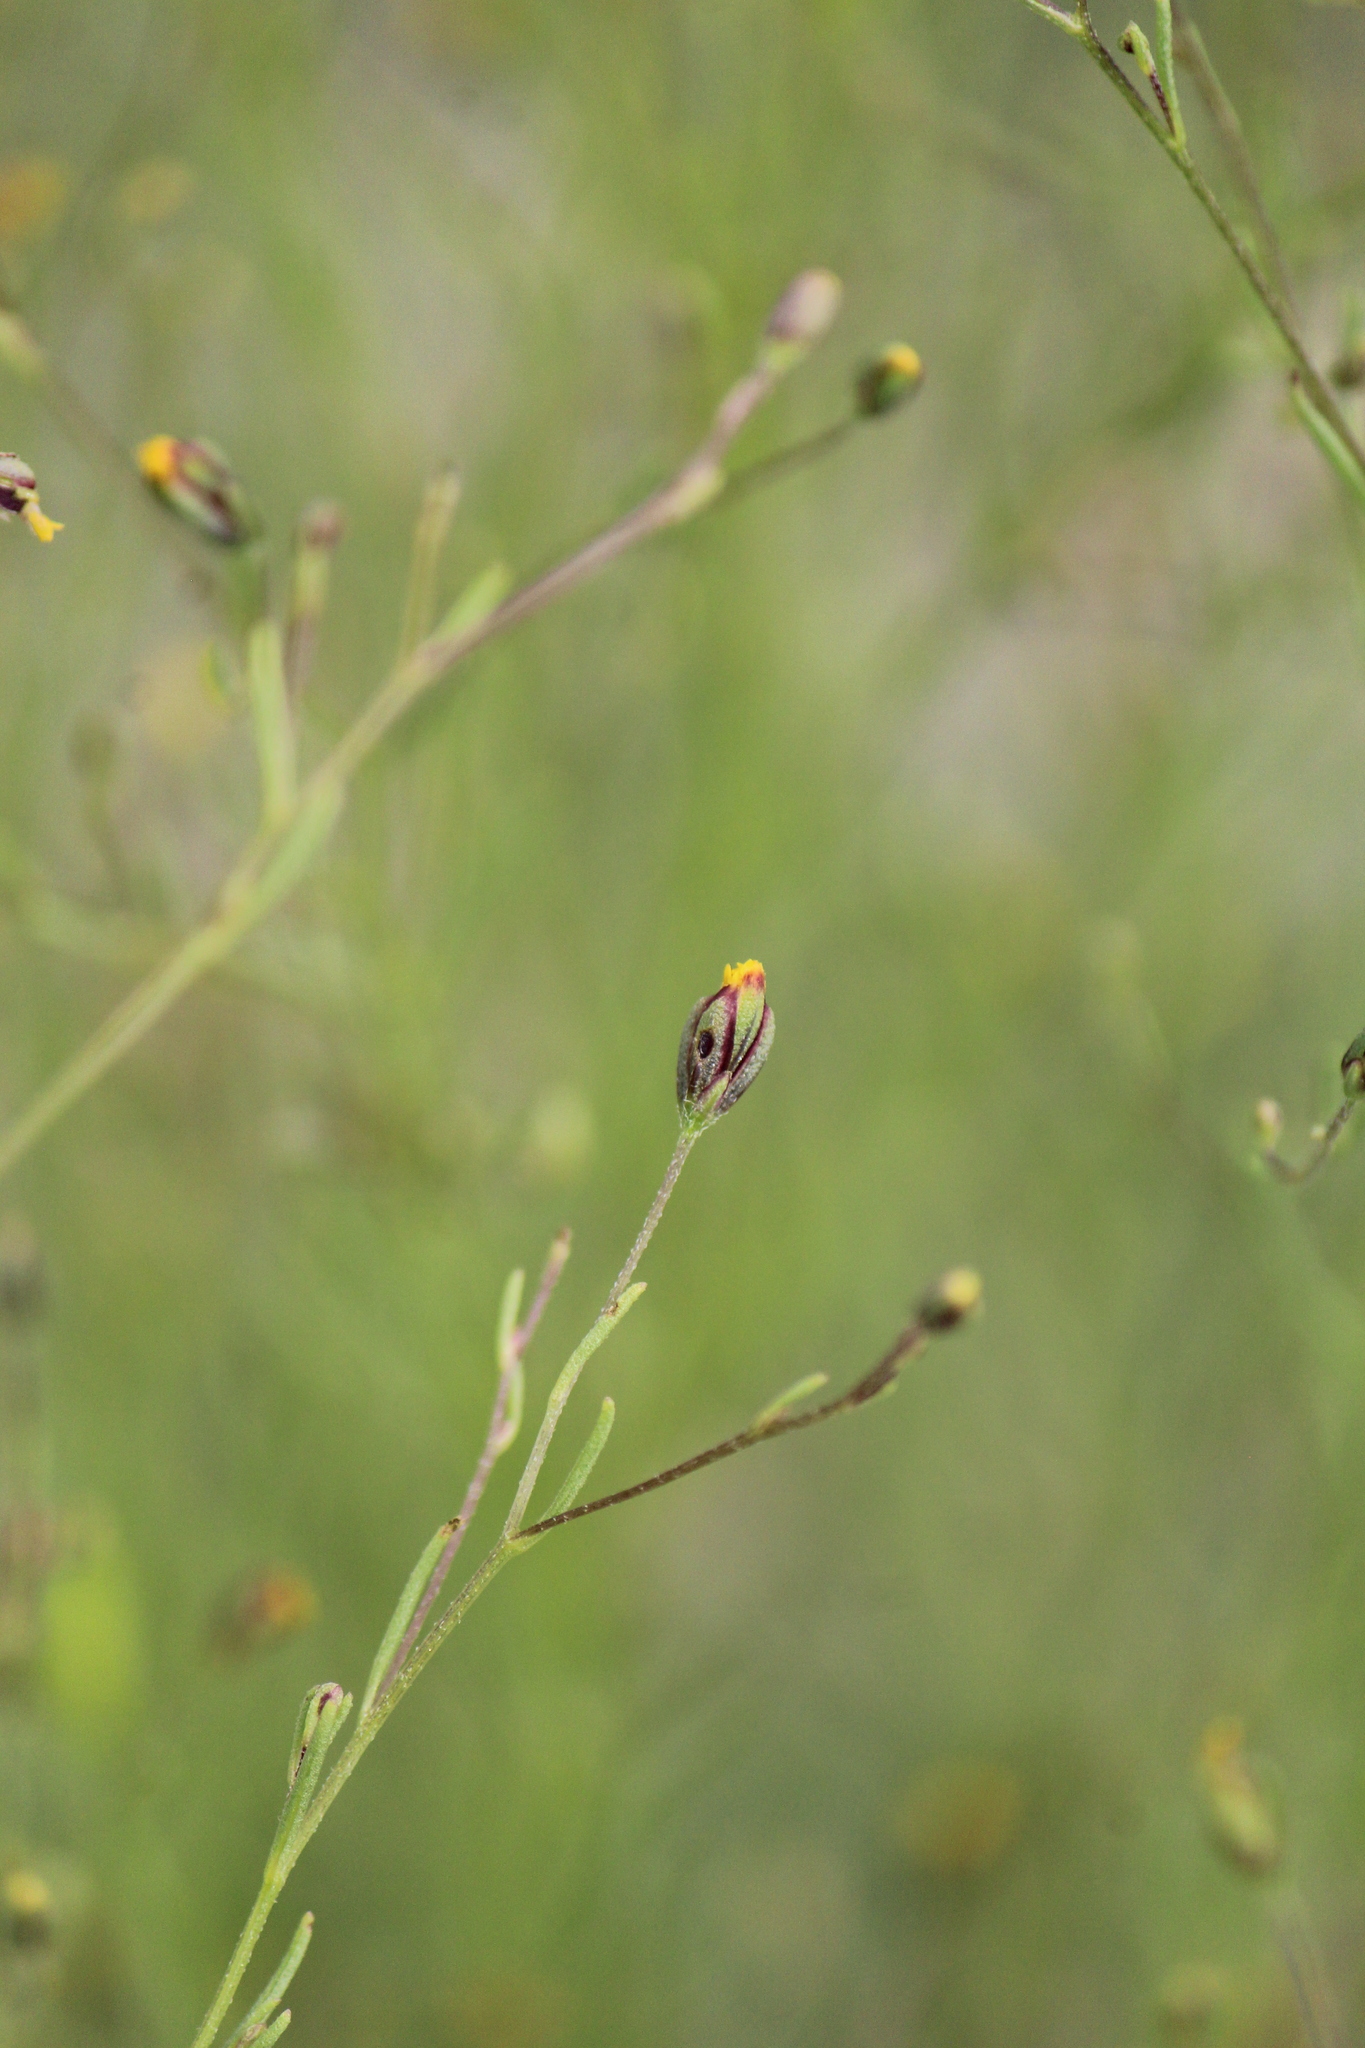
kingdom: Plantae
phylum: Tracheophyta
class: Magnoliopsida
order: Asterales
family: Asteraceae
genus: Schkuhria
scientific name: Schkuhria pinnata
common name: Dwarf marigold
